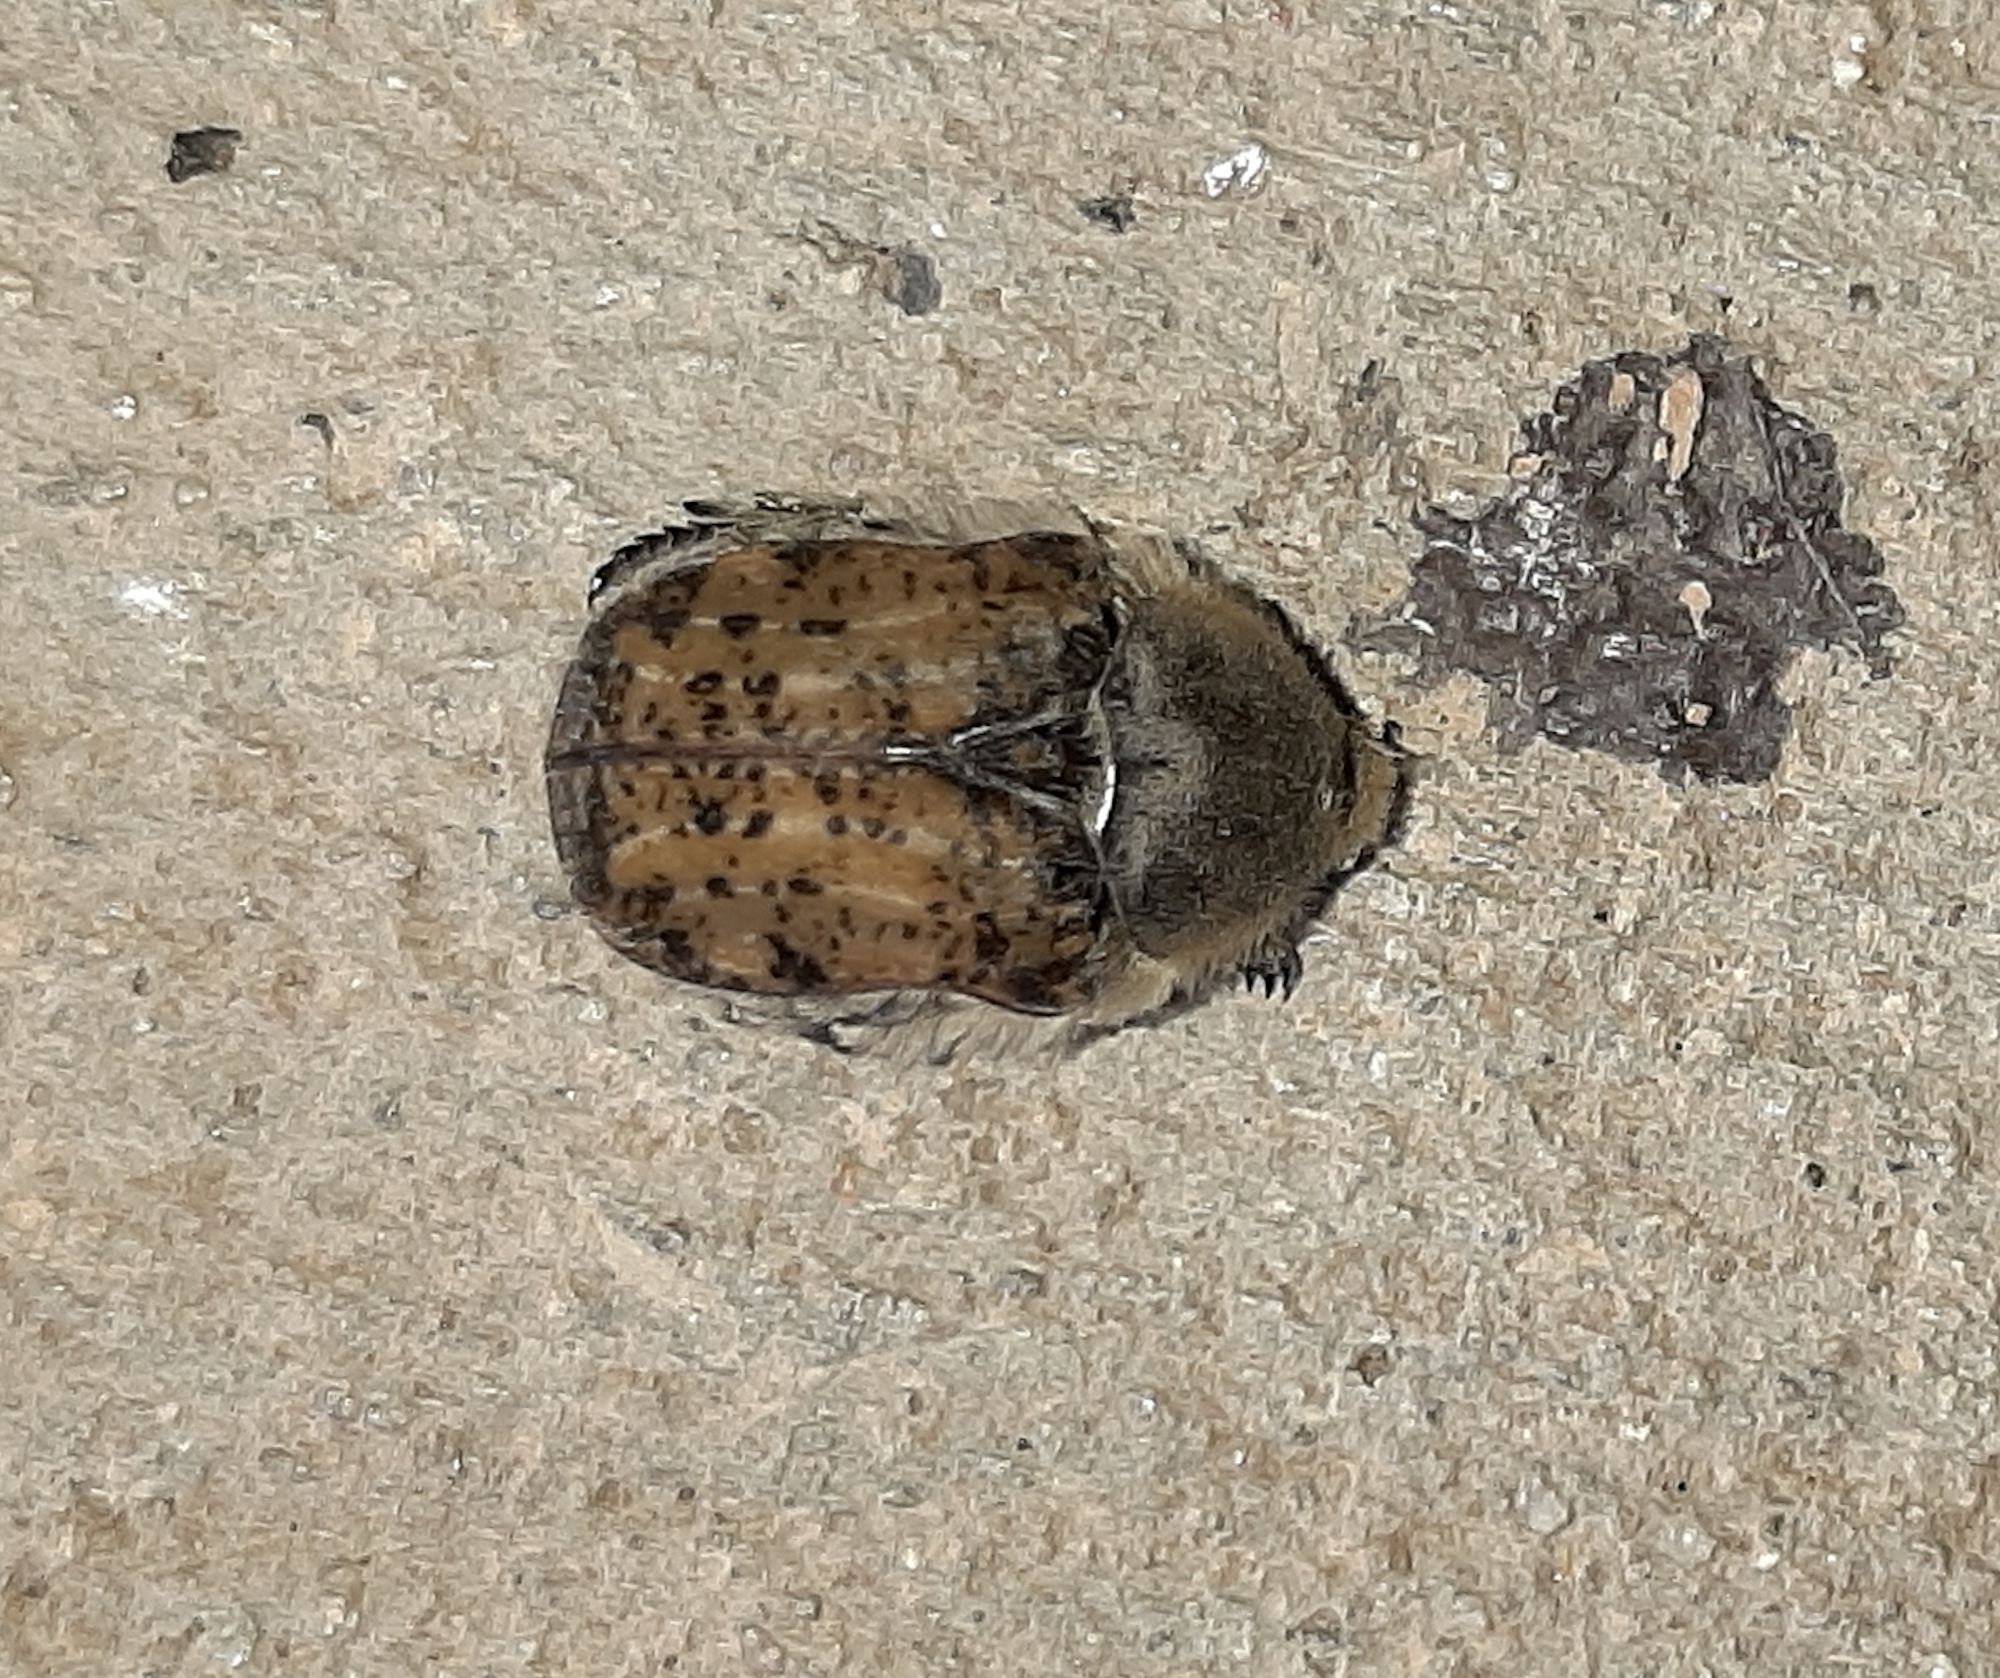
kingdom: Animalia
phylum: Arthropoda
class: Insecta
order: Coleoptera
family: Scarabaeidae
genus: Euphoria
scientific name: Euphoria inda
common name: Bumble flower beetle
